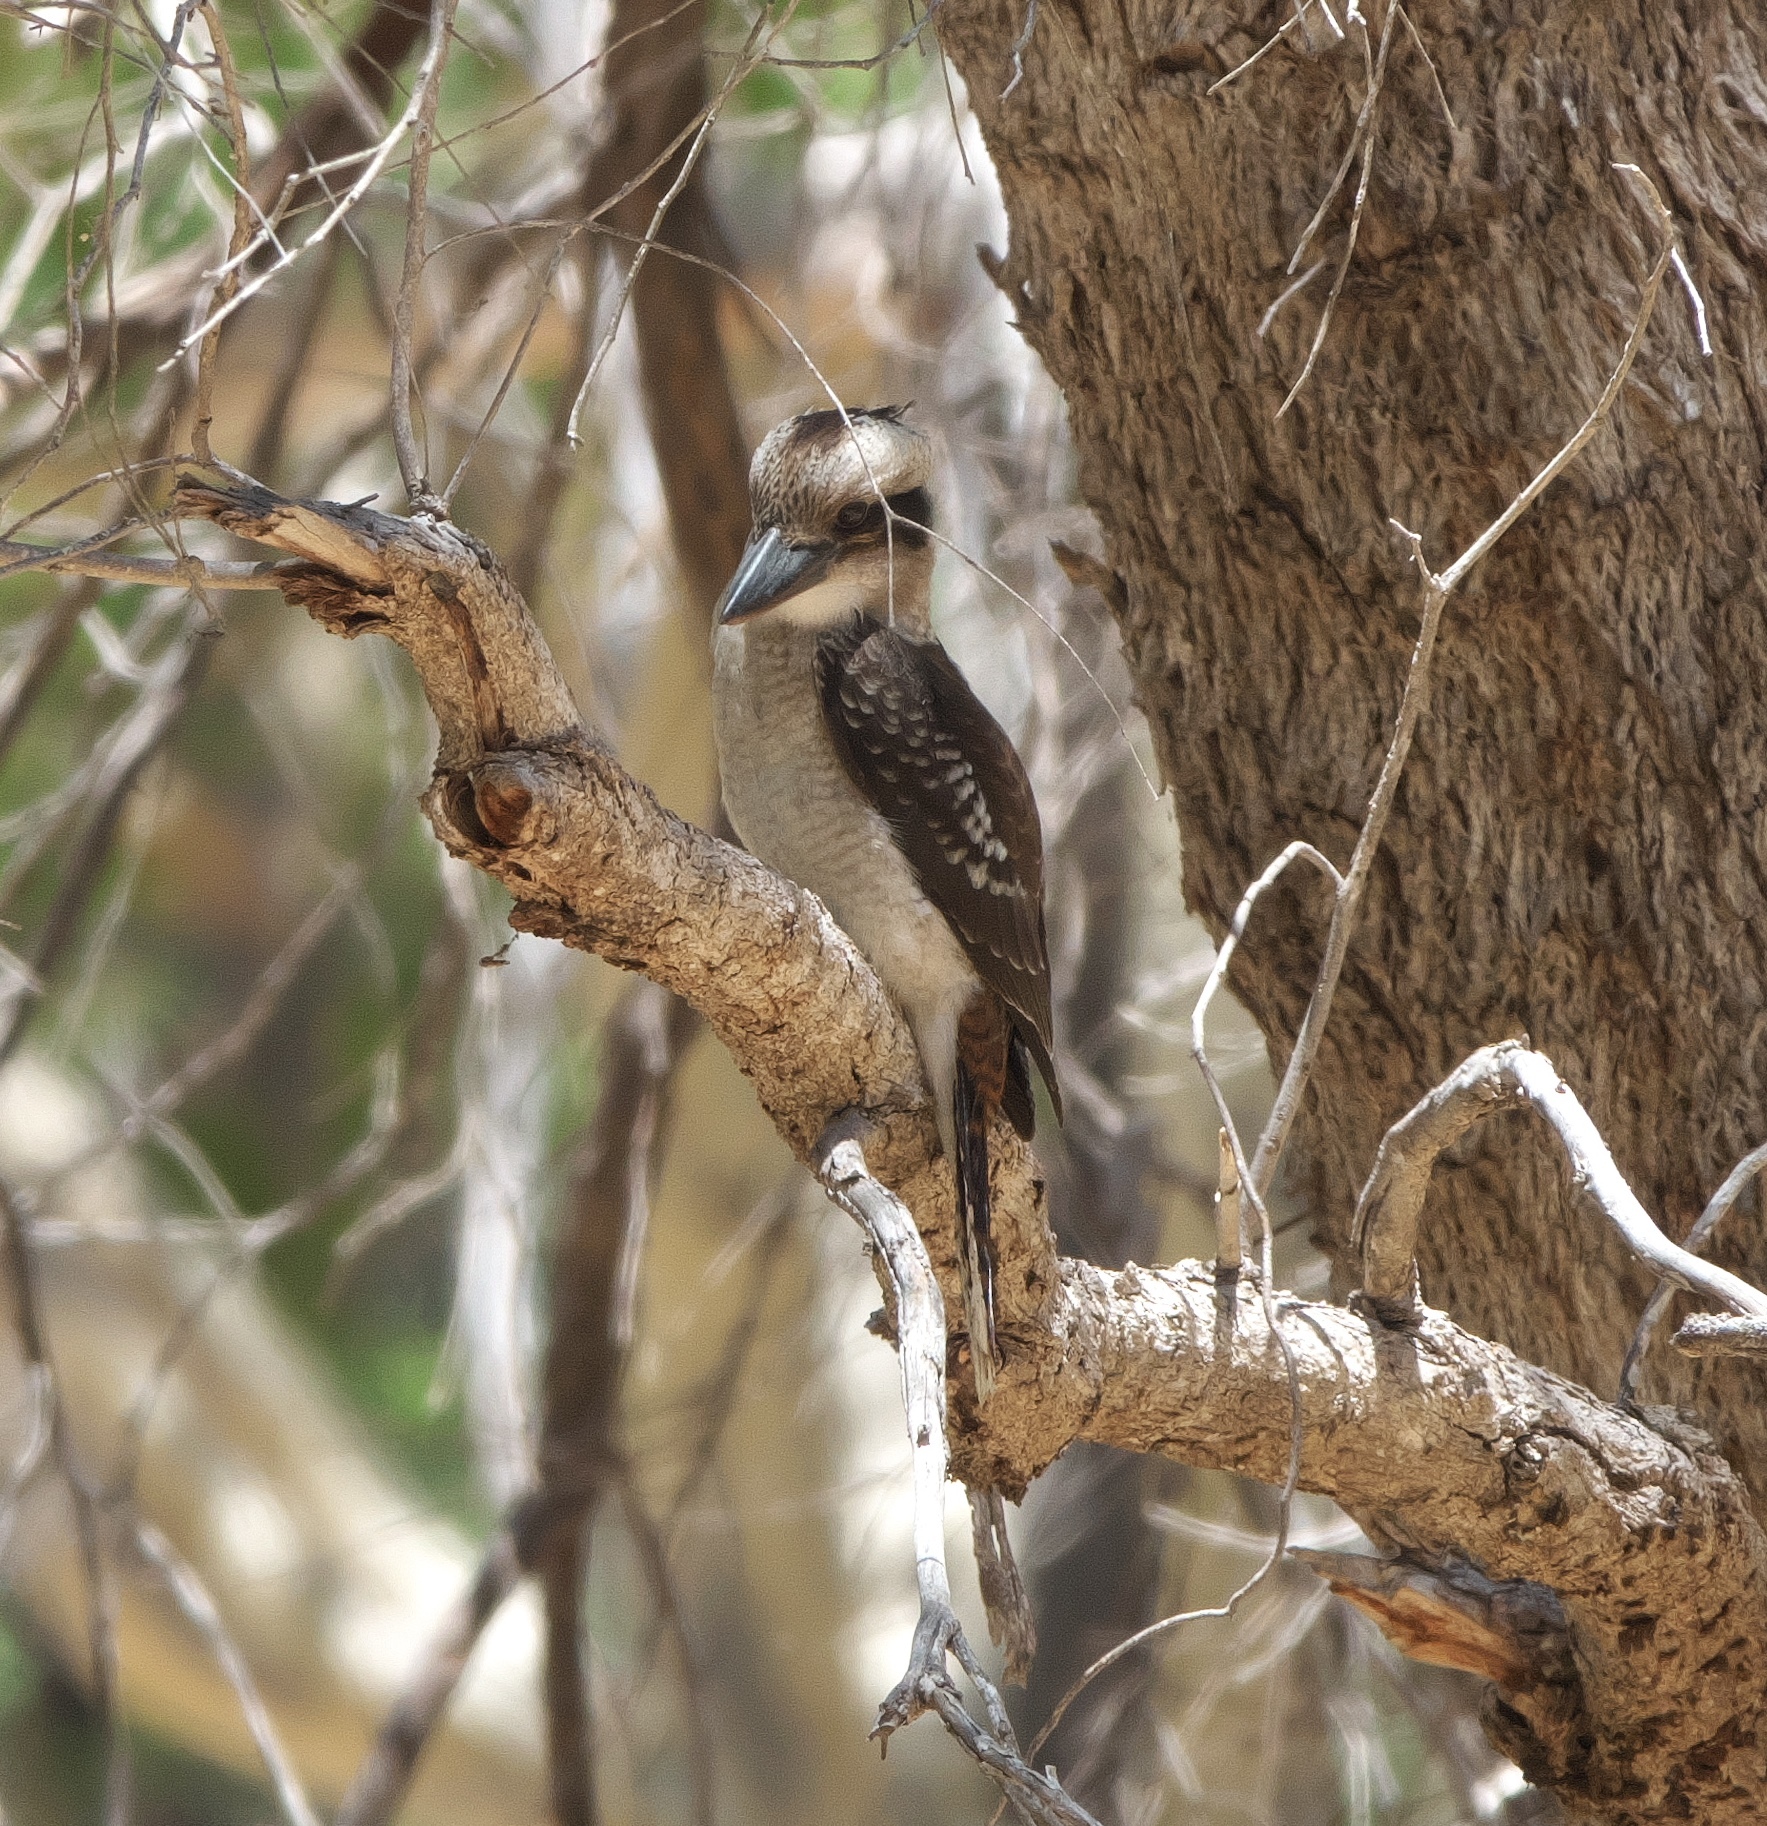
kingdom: Animalia
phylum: Chordata
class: Aves
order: Coraciiformes
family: Alcedinidae
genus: Dacelo
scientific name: Dacelo novaeguineae
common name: Laughing kookaburra
